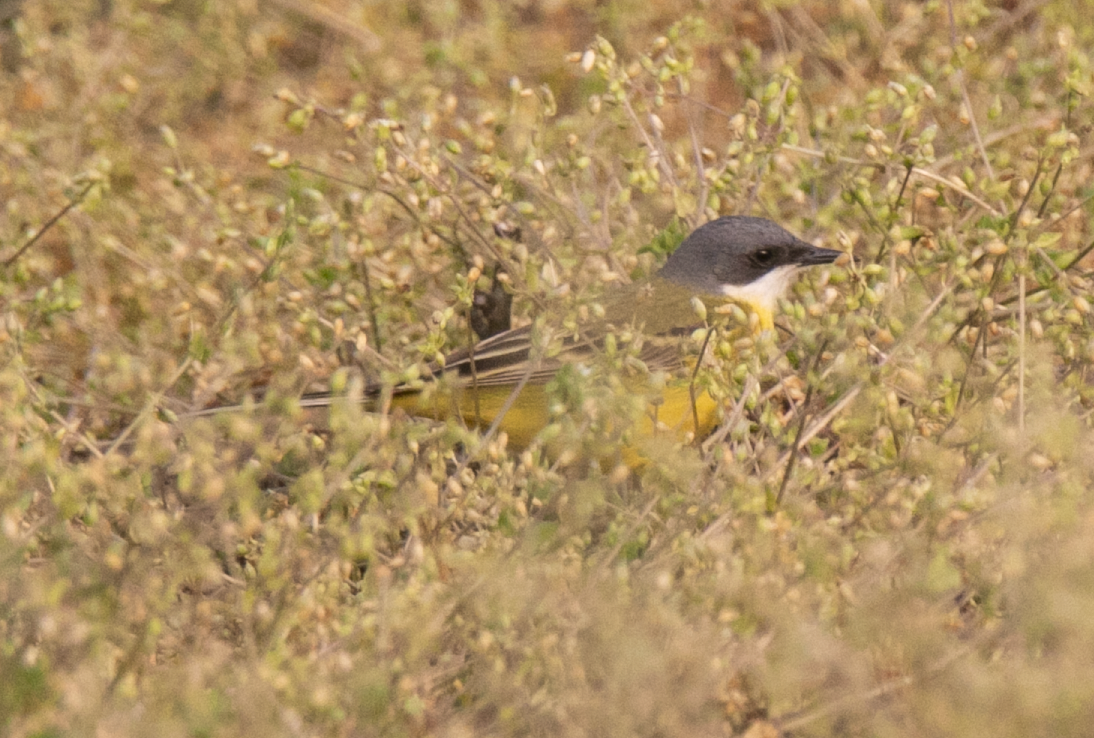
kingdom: Animalia
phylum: Chordata
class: Aves
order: Passeriformes
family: Motacillidae
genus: Motacilla
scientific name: Motacilla flava
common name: Western yellow wagtail
